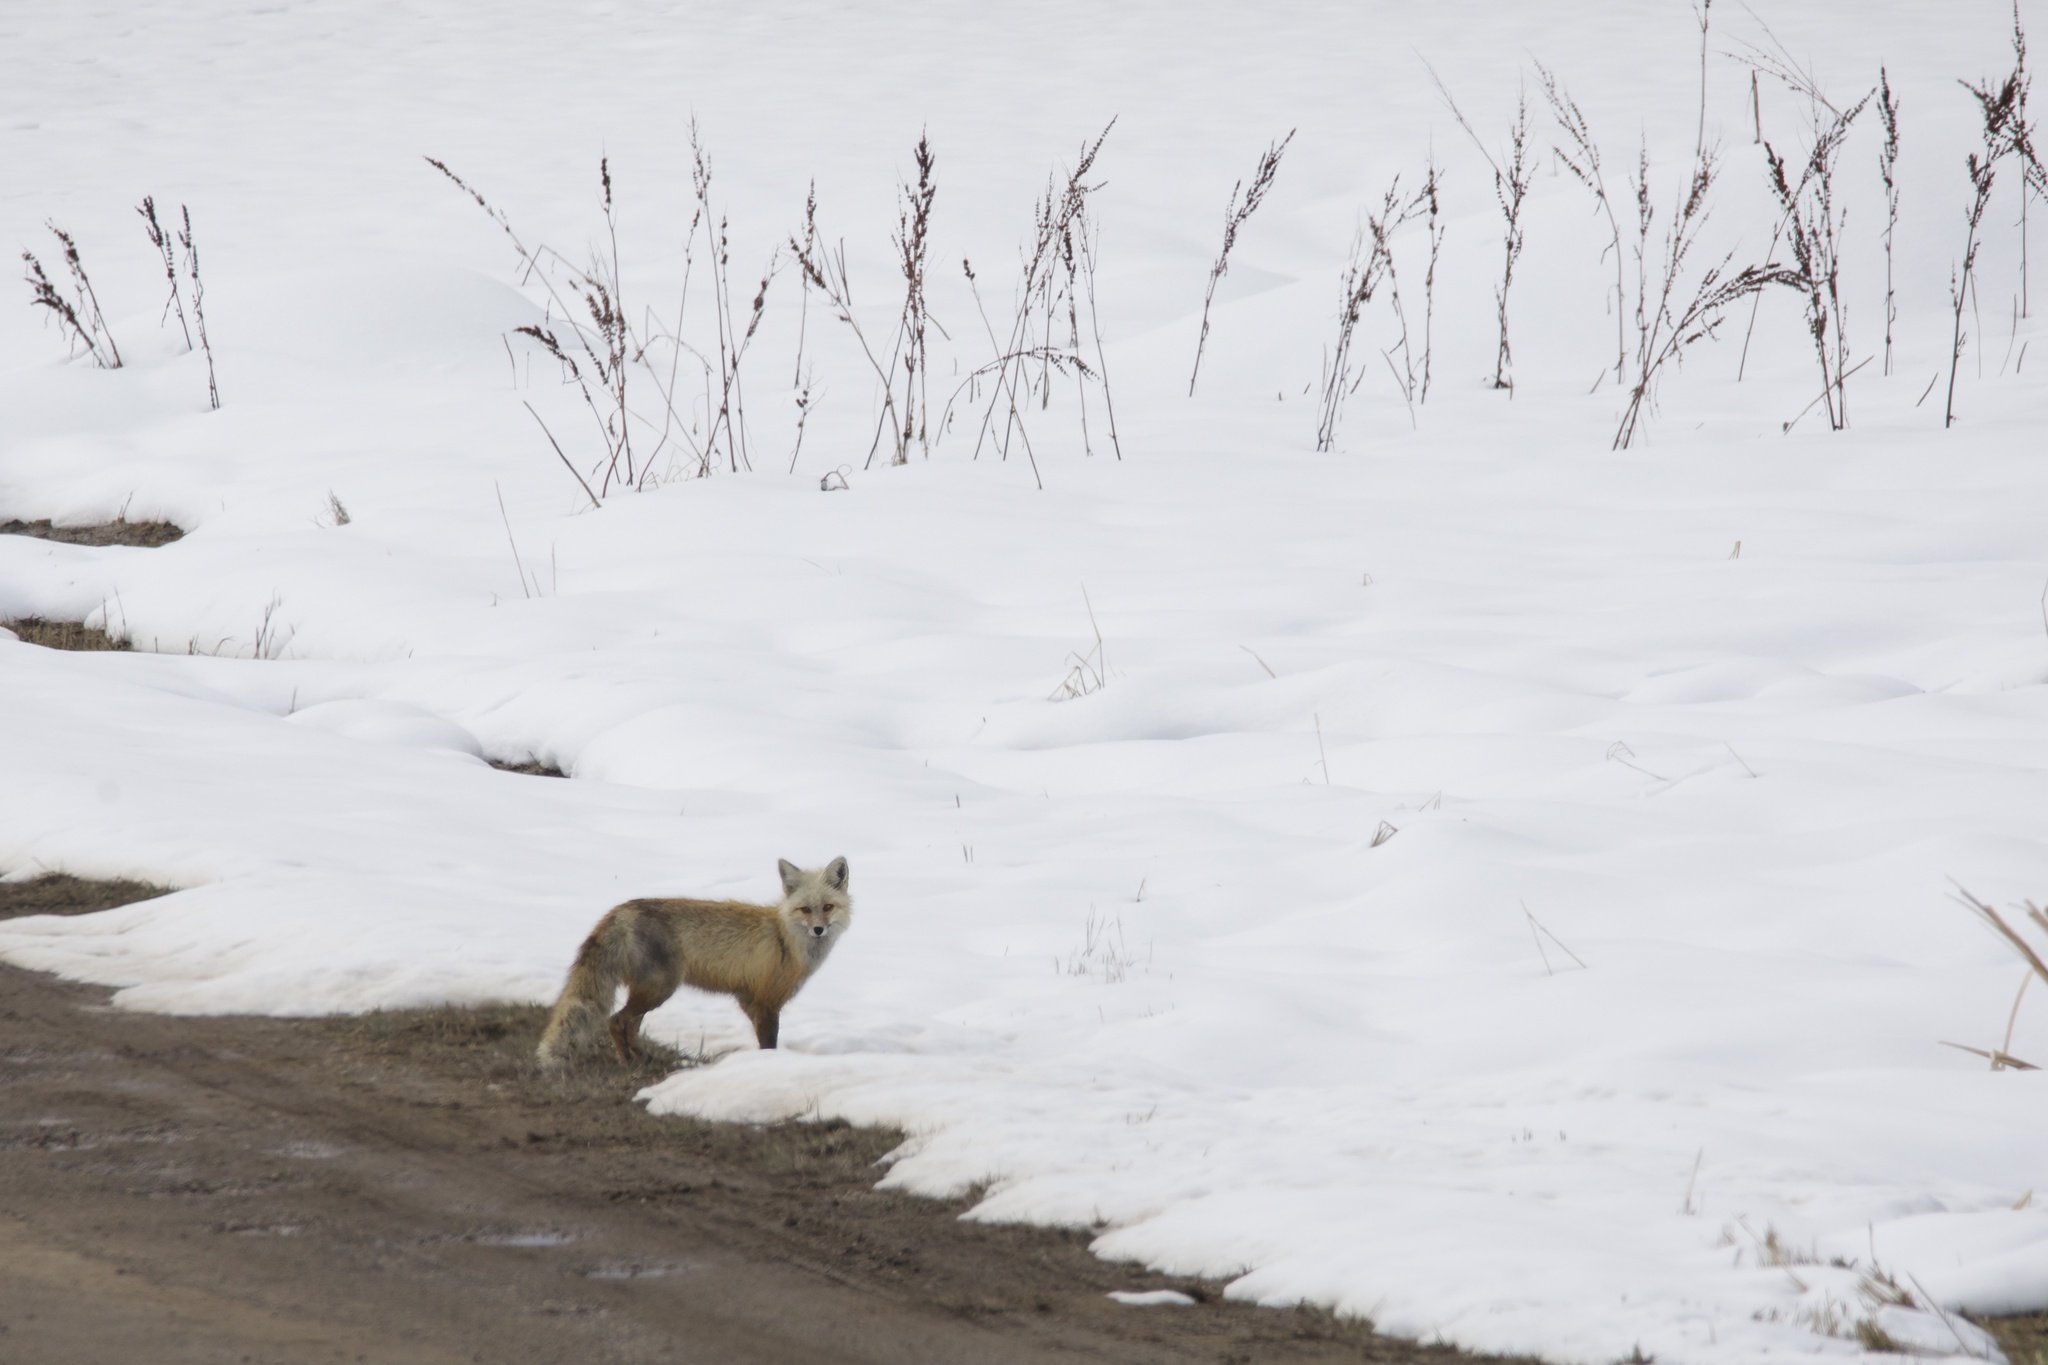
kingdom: Animalia
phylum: Chordata
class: Mammalia
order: Carnivora
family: Canidae
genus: Vulpes
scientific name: Vulpes vulpes
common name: Red fox
